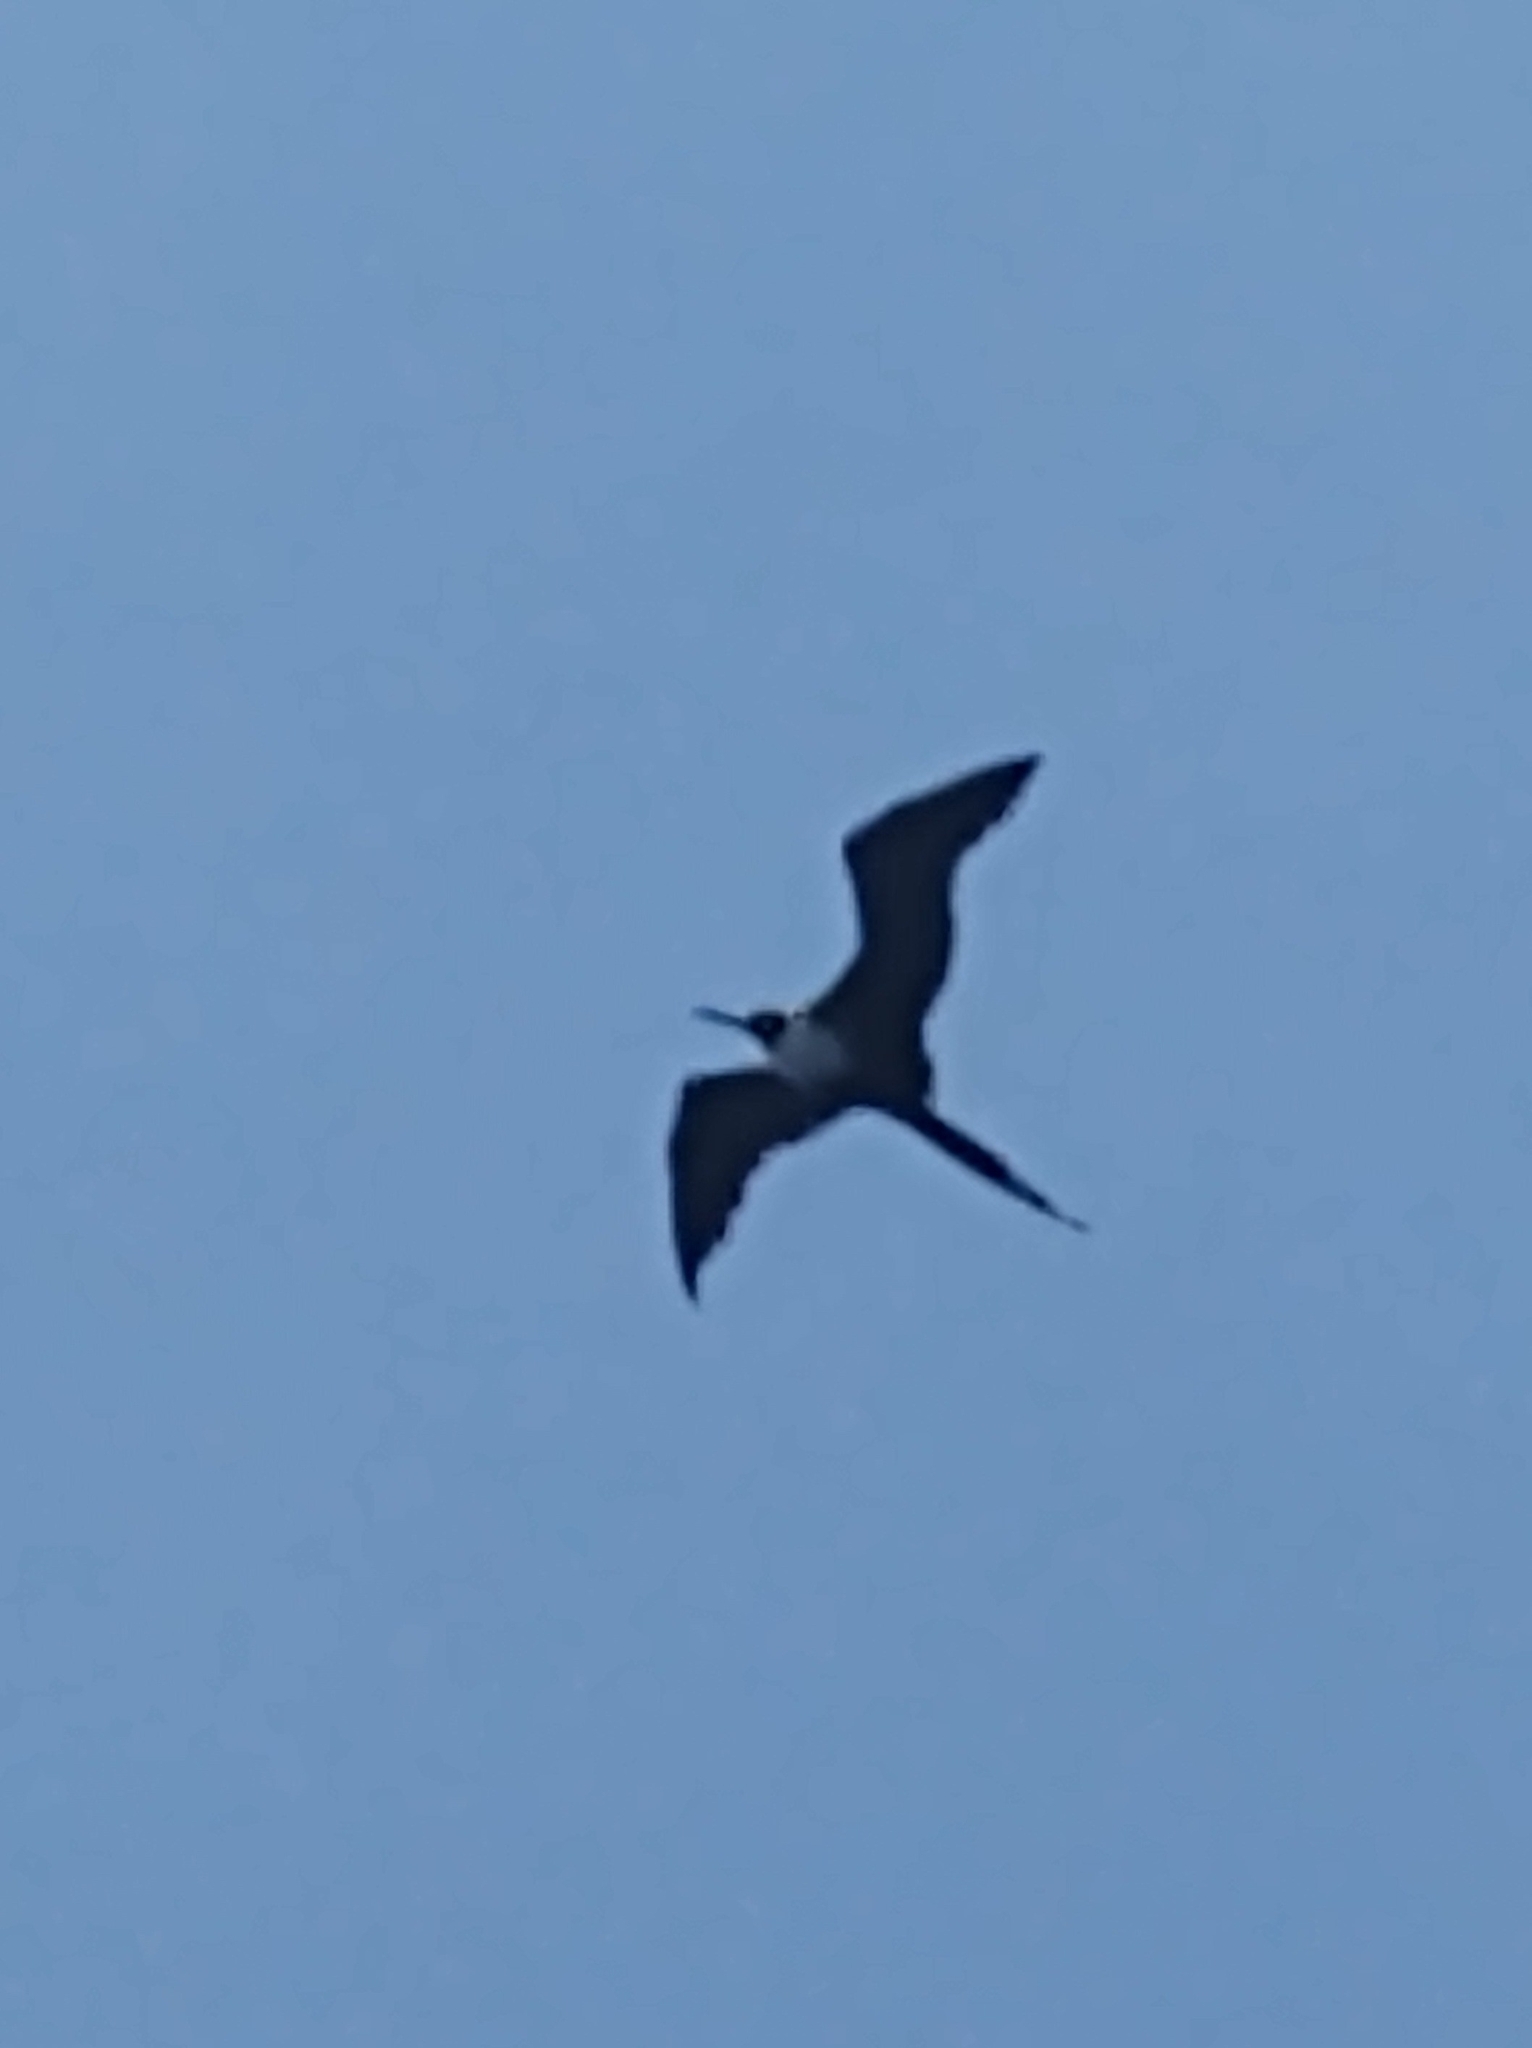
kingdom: Animalia
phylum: Chordata
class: Aves
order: Suliformes
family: Fregatidae
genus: Fregata
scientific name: Fregata magnificens
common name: Magnificent frigatebird
